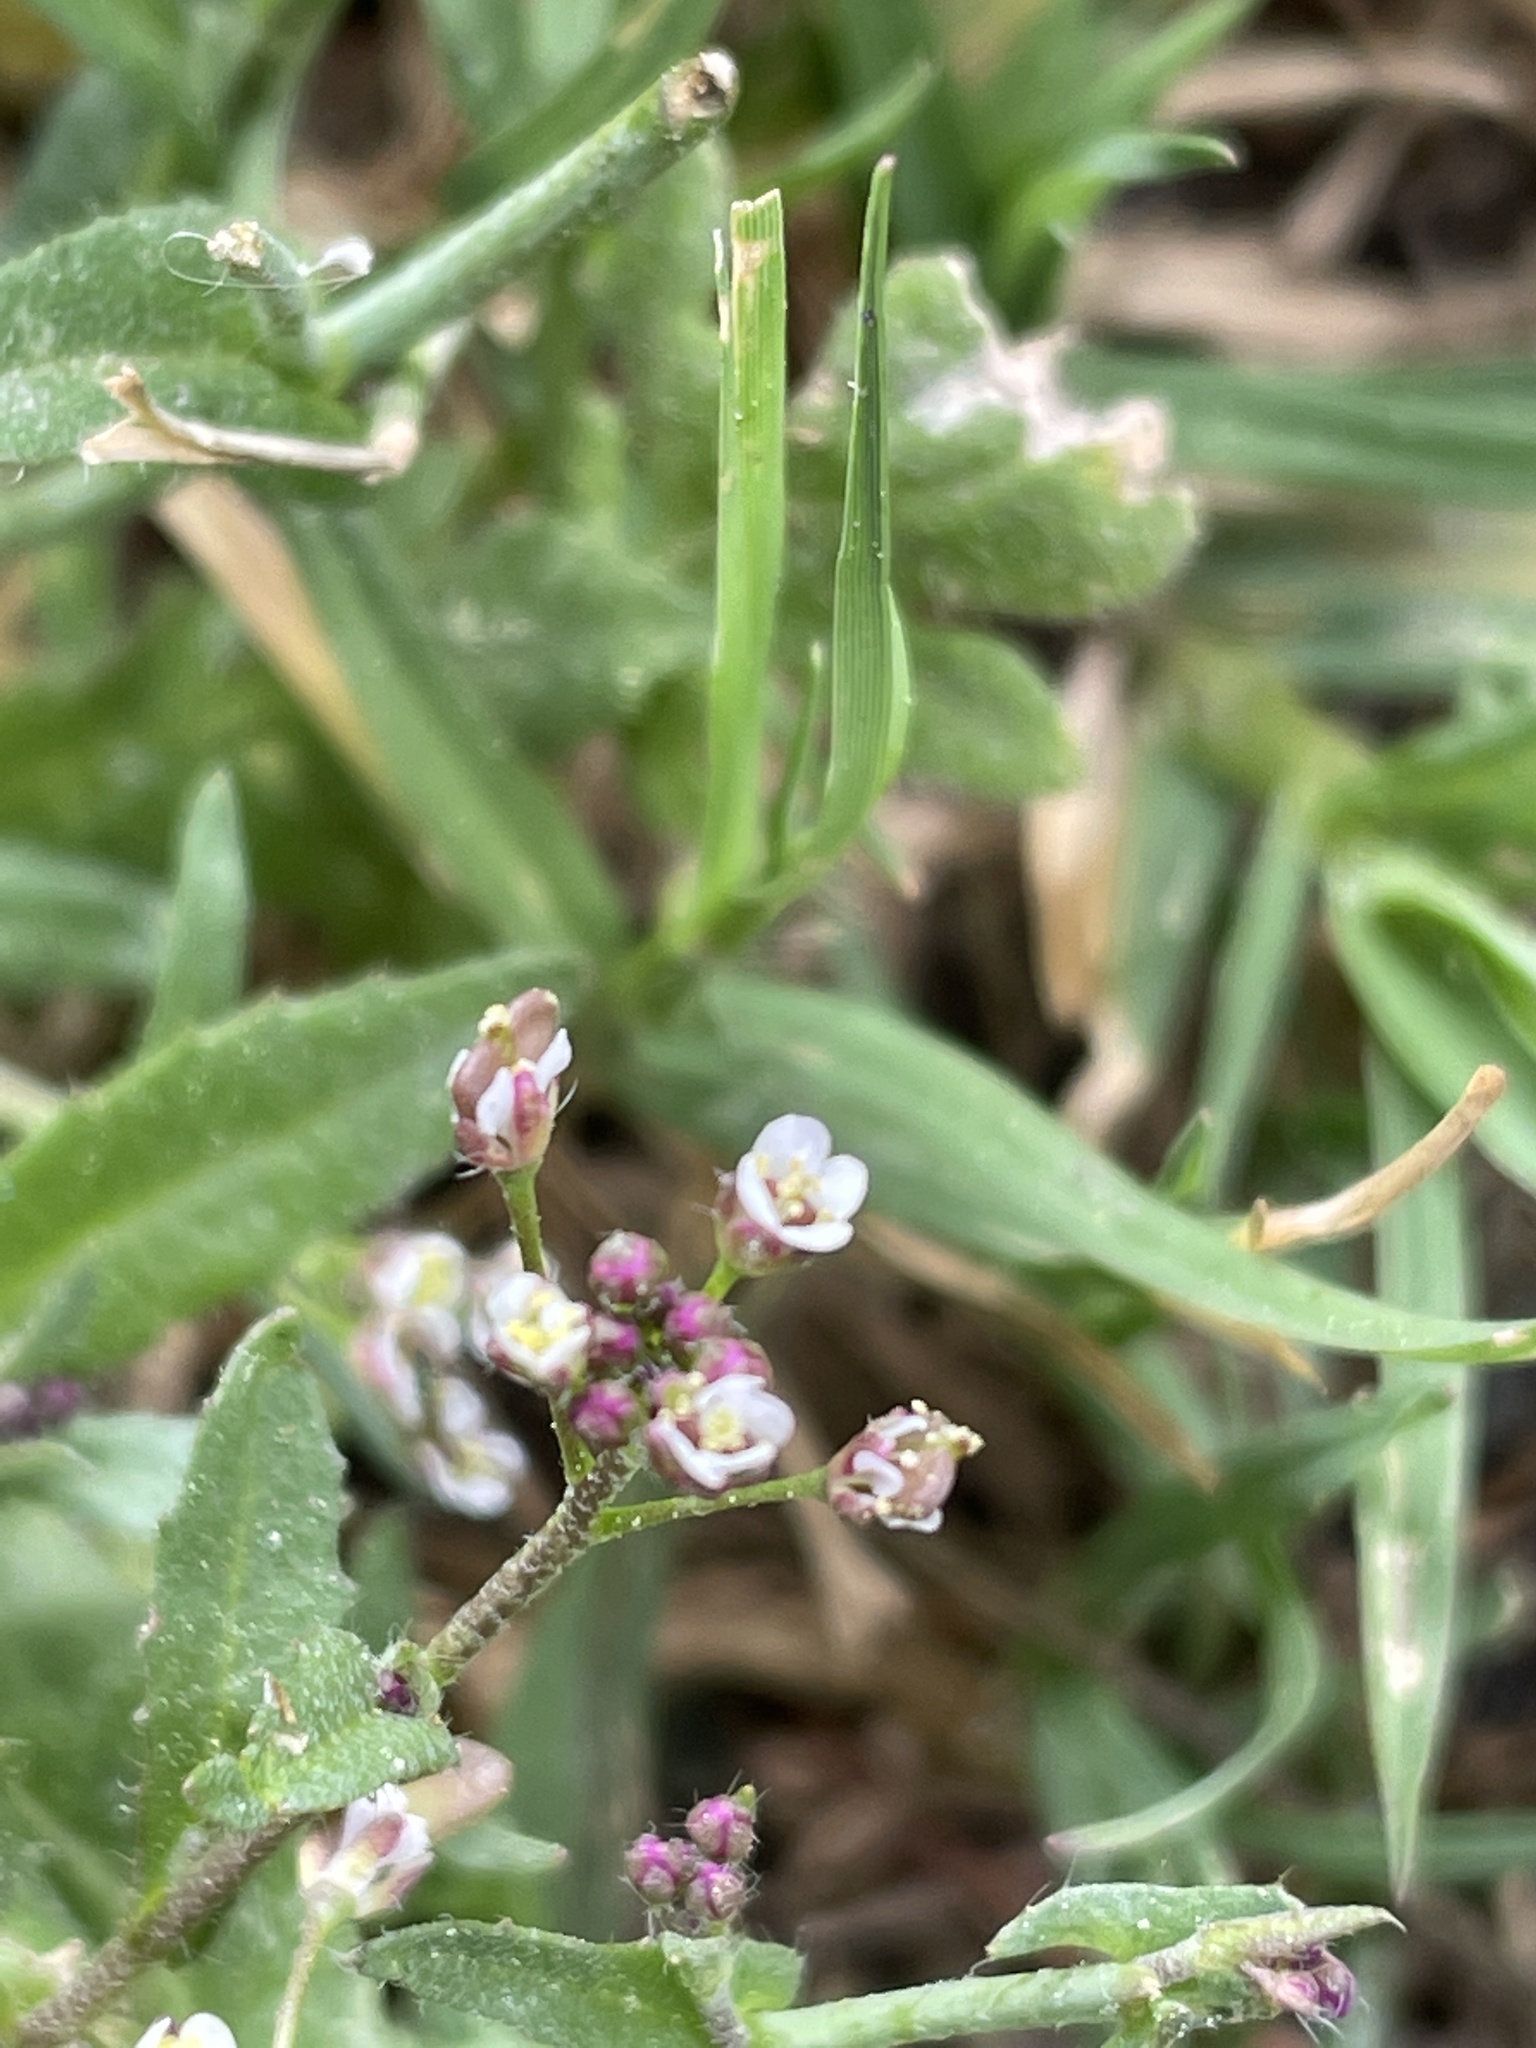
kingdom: Plantae
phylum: Tracheophyta
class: Magnoliopsida
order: Brassicales
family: Brassicaceae
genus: Capsella
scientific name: Capsella bursa-pastoris
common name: Shepherd's purse
